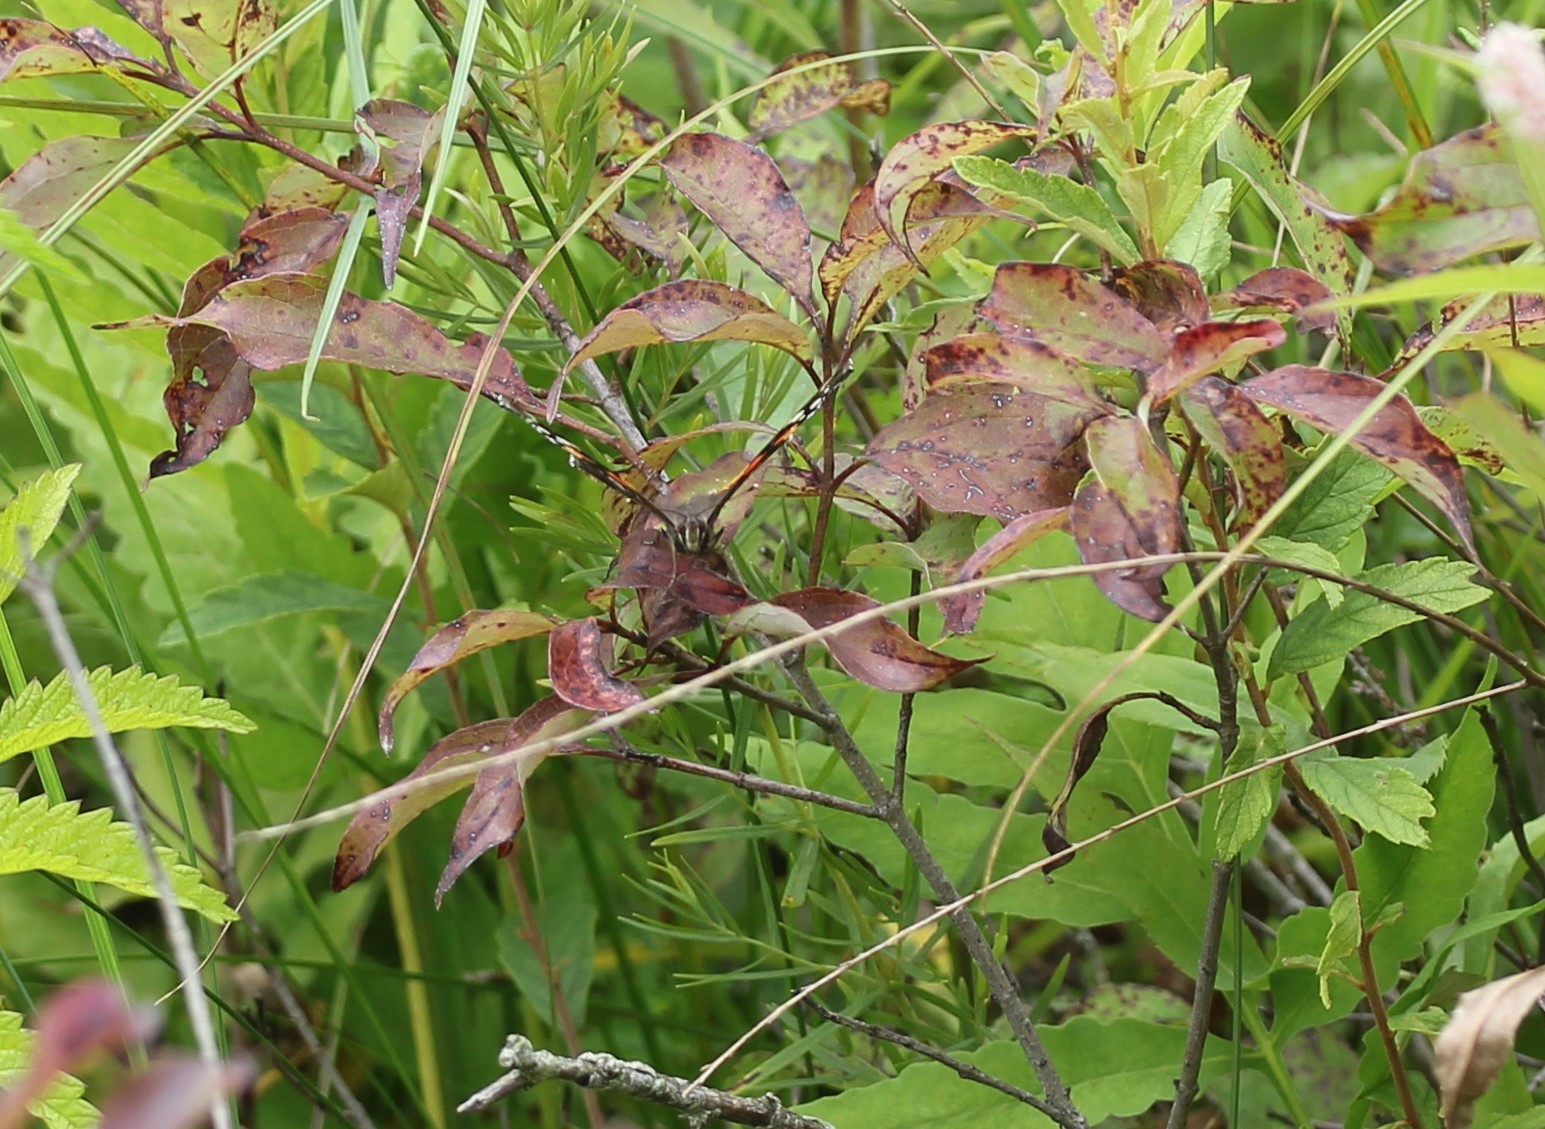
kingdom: Animalia
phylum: Arthropoda
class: Insecta
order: Lepidoptera
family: Nymphalidae
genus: Vanessa
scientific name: Vanessa atalanta
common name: Red admiral
